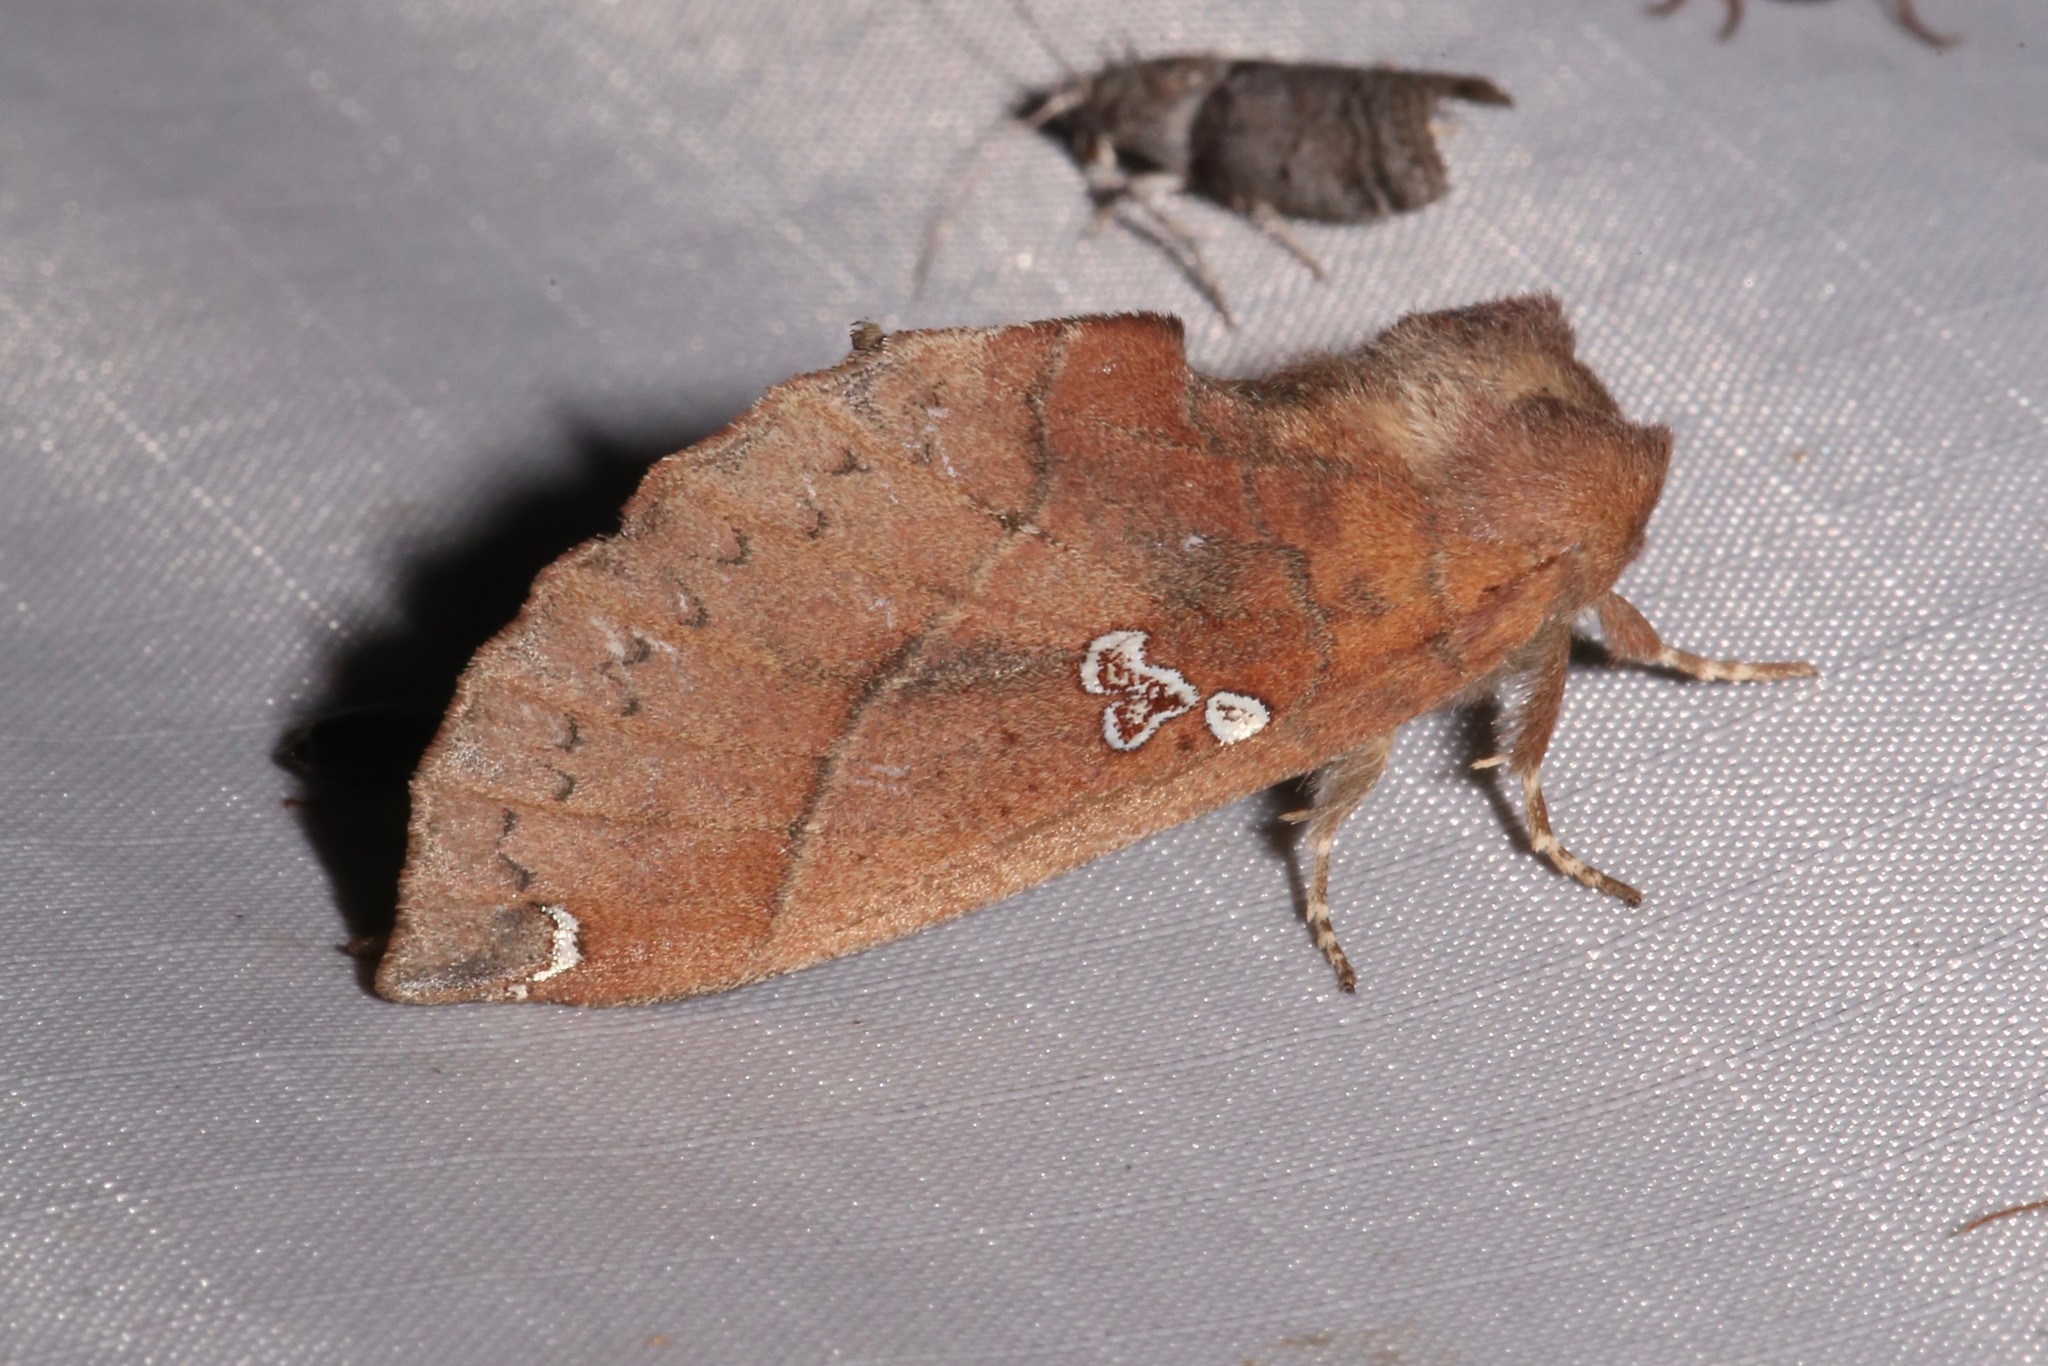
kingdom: Animalia
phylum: Arthropoda
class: Insecta
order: Lepidoptera
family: Notodontidae
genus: Pseudhapigia
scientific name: Pseudhapigia brunnea
